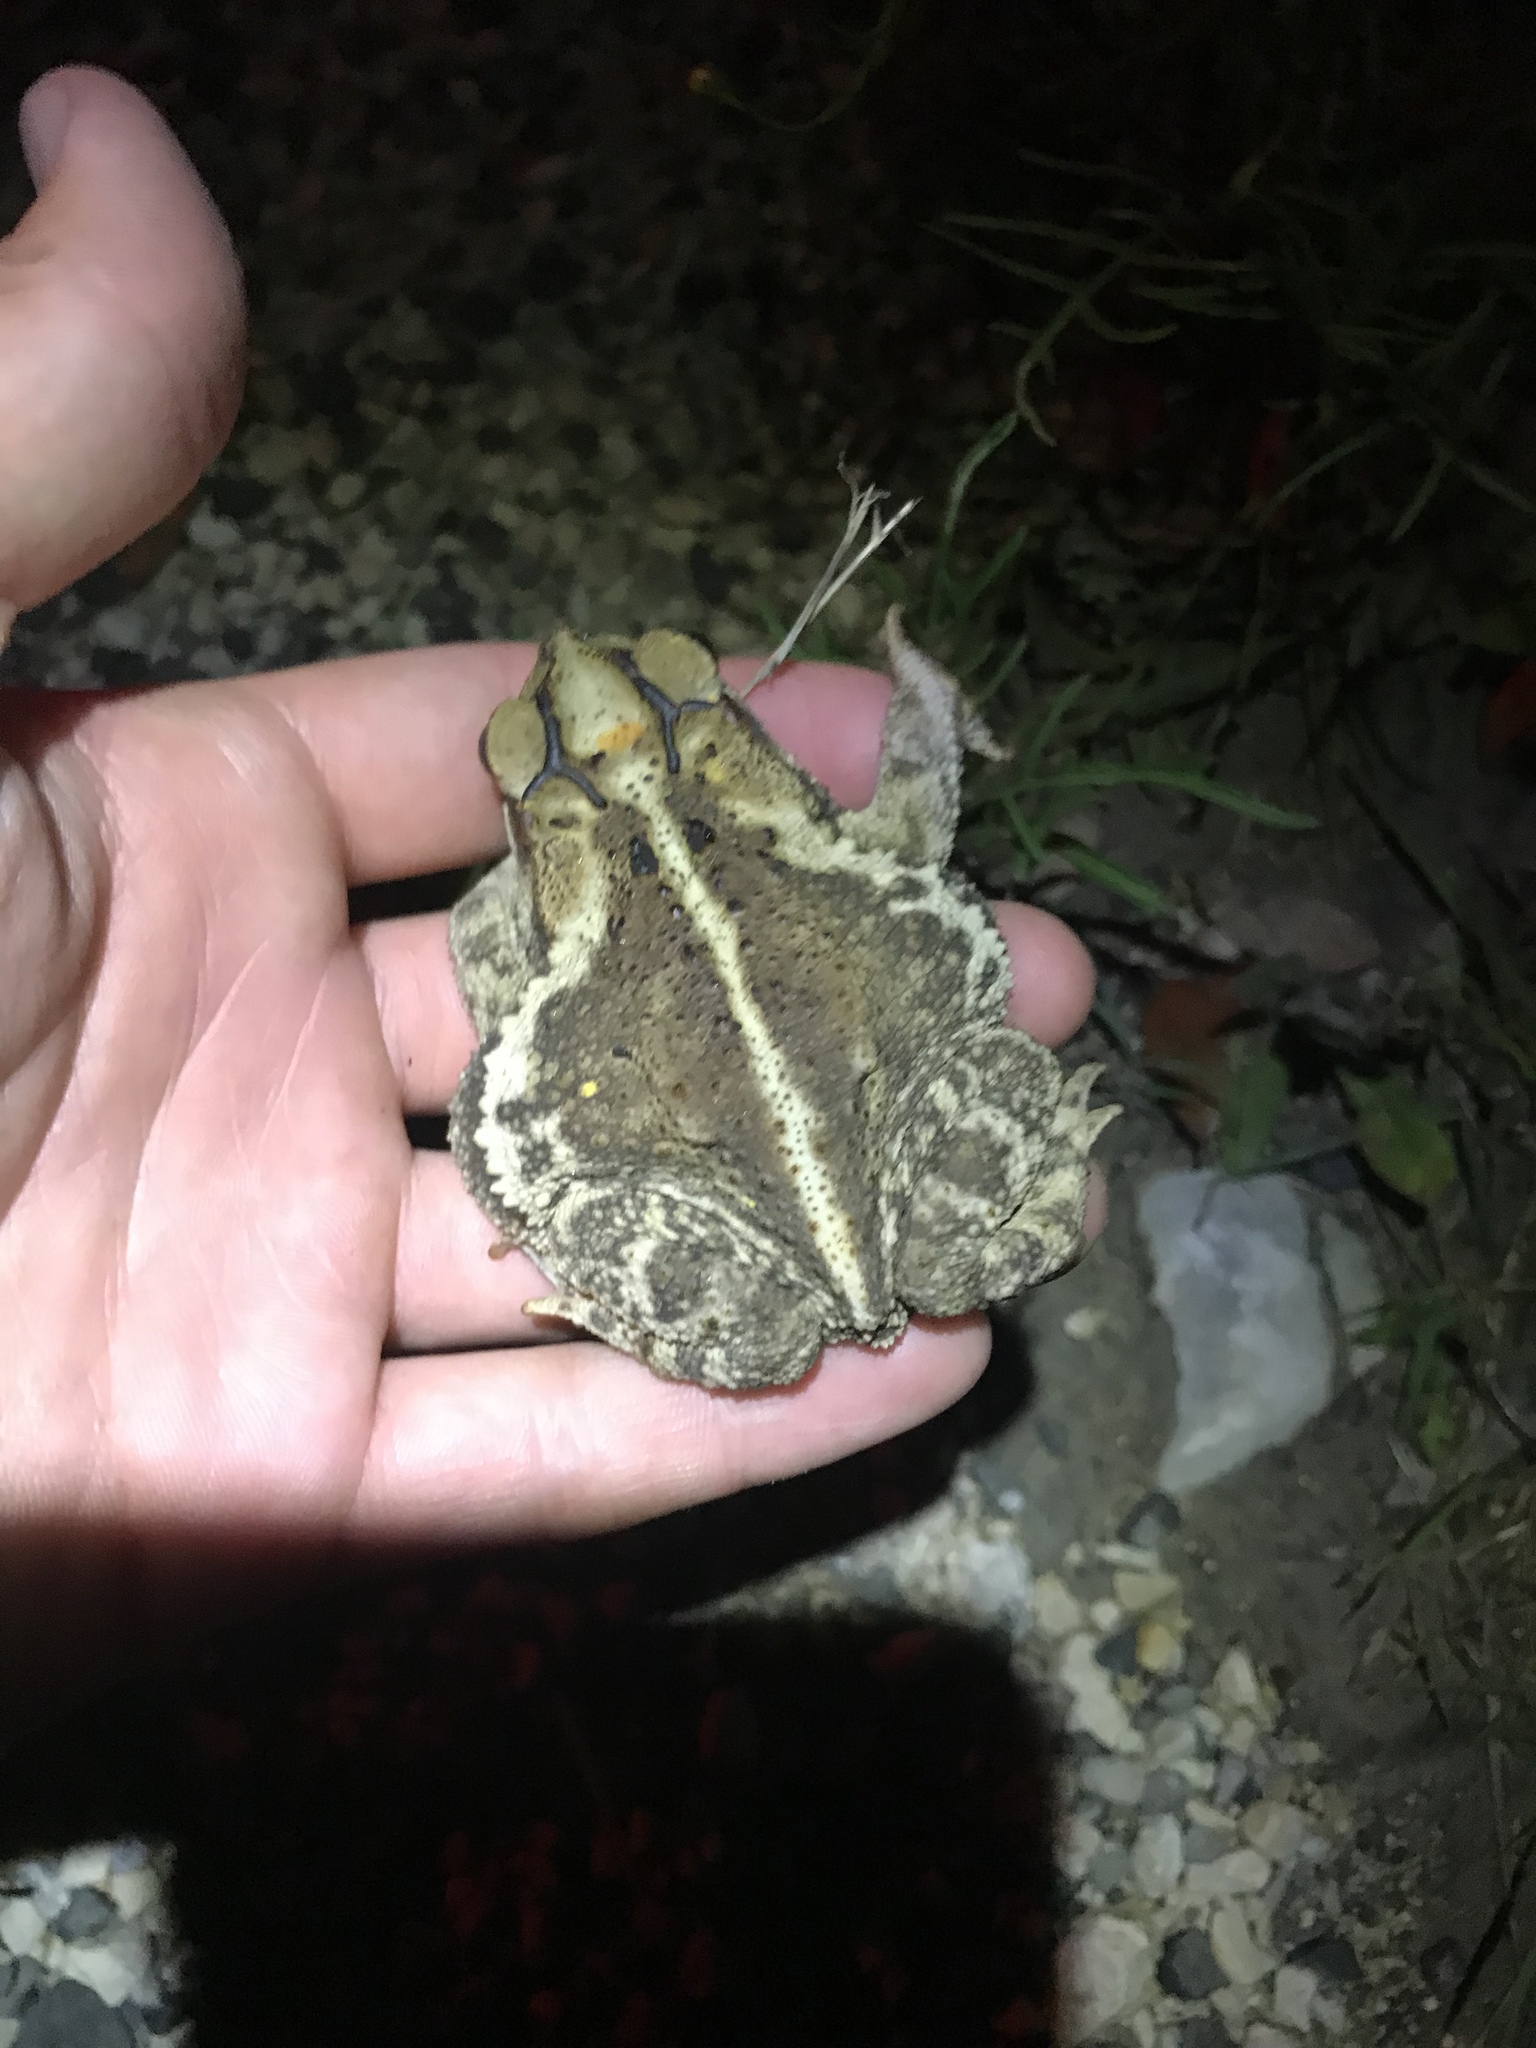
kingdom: Animalia
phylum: Chordata
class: Amphibia
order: Anura
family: Bufonidae
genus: Incilius
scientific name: Incilius nebulifer
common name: Gulf coast toad
